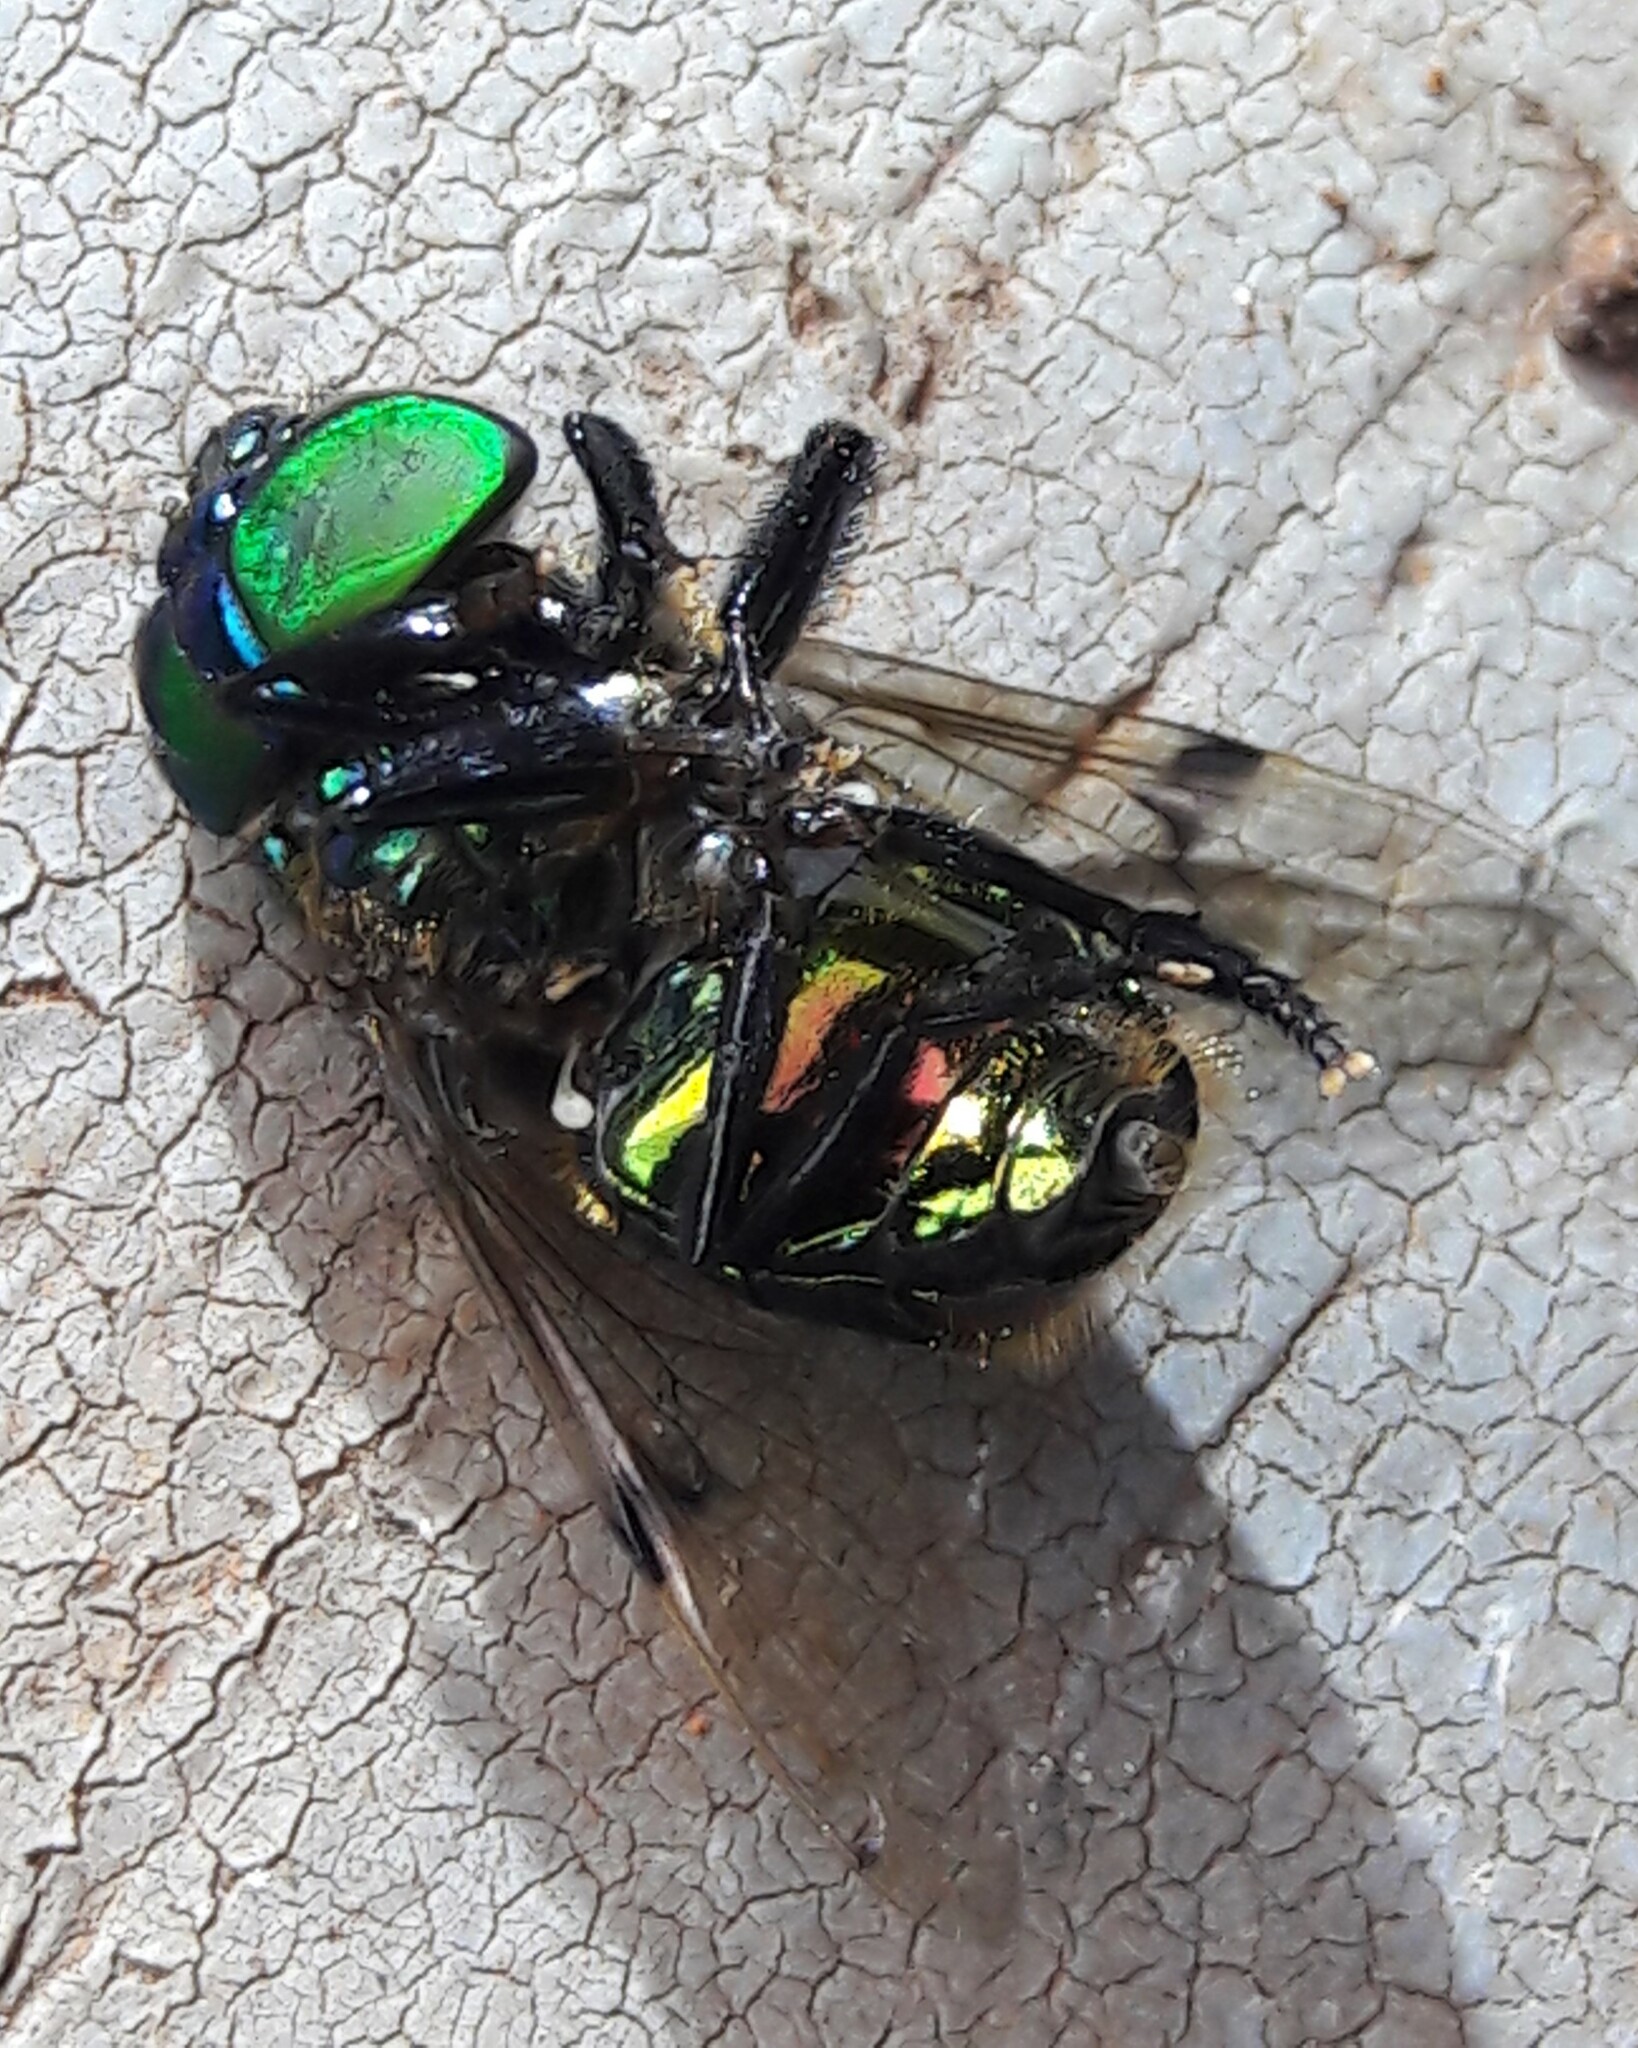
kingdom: Animalia
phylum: Arthropoda
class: Insecta
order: Diptera
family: Syrphidae
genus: Ornidia
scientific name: Ornidia obesa
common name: Syrphid fly
